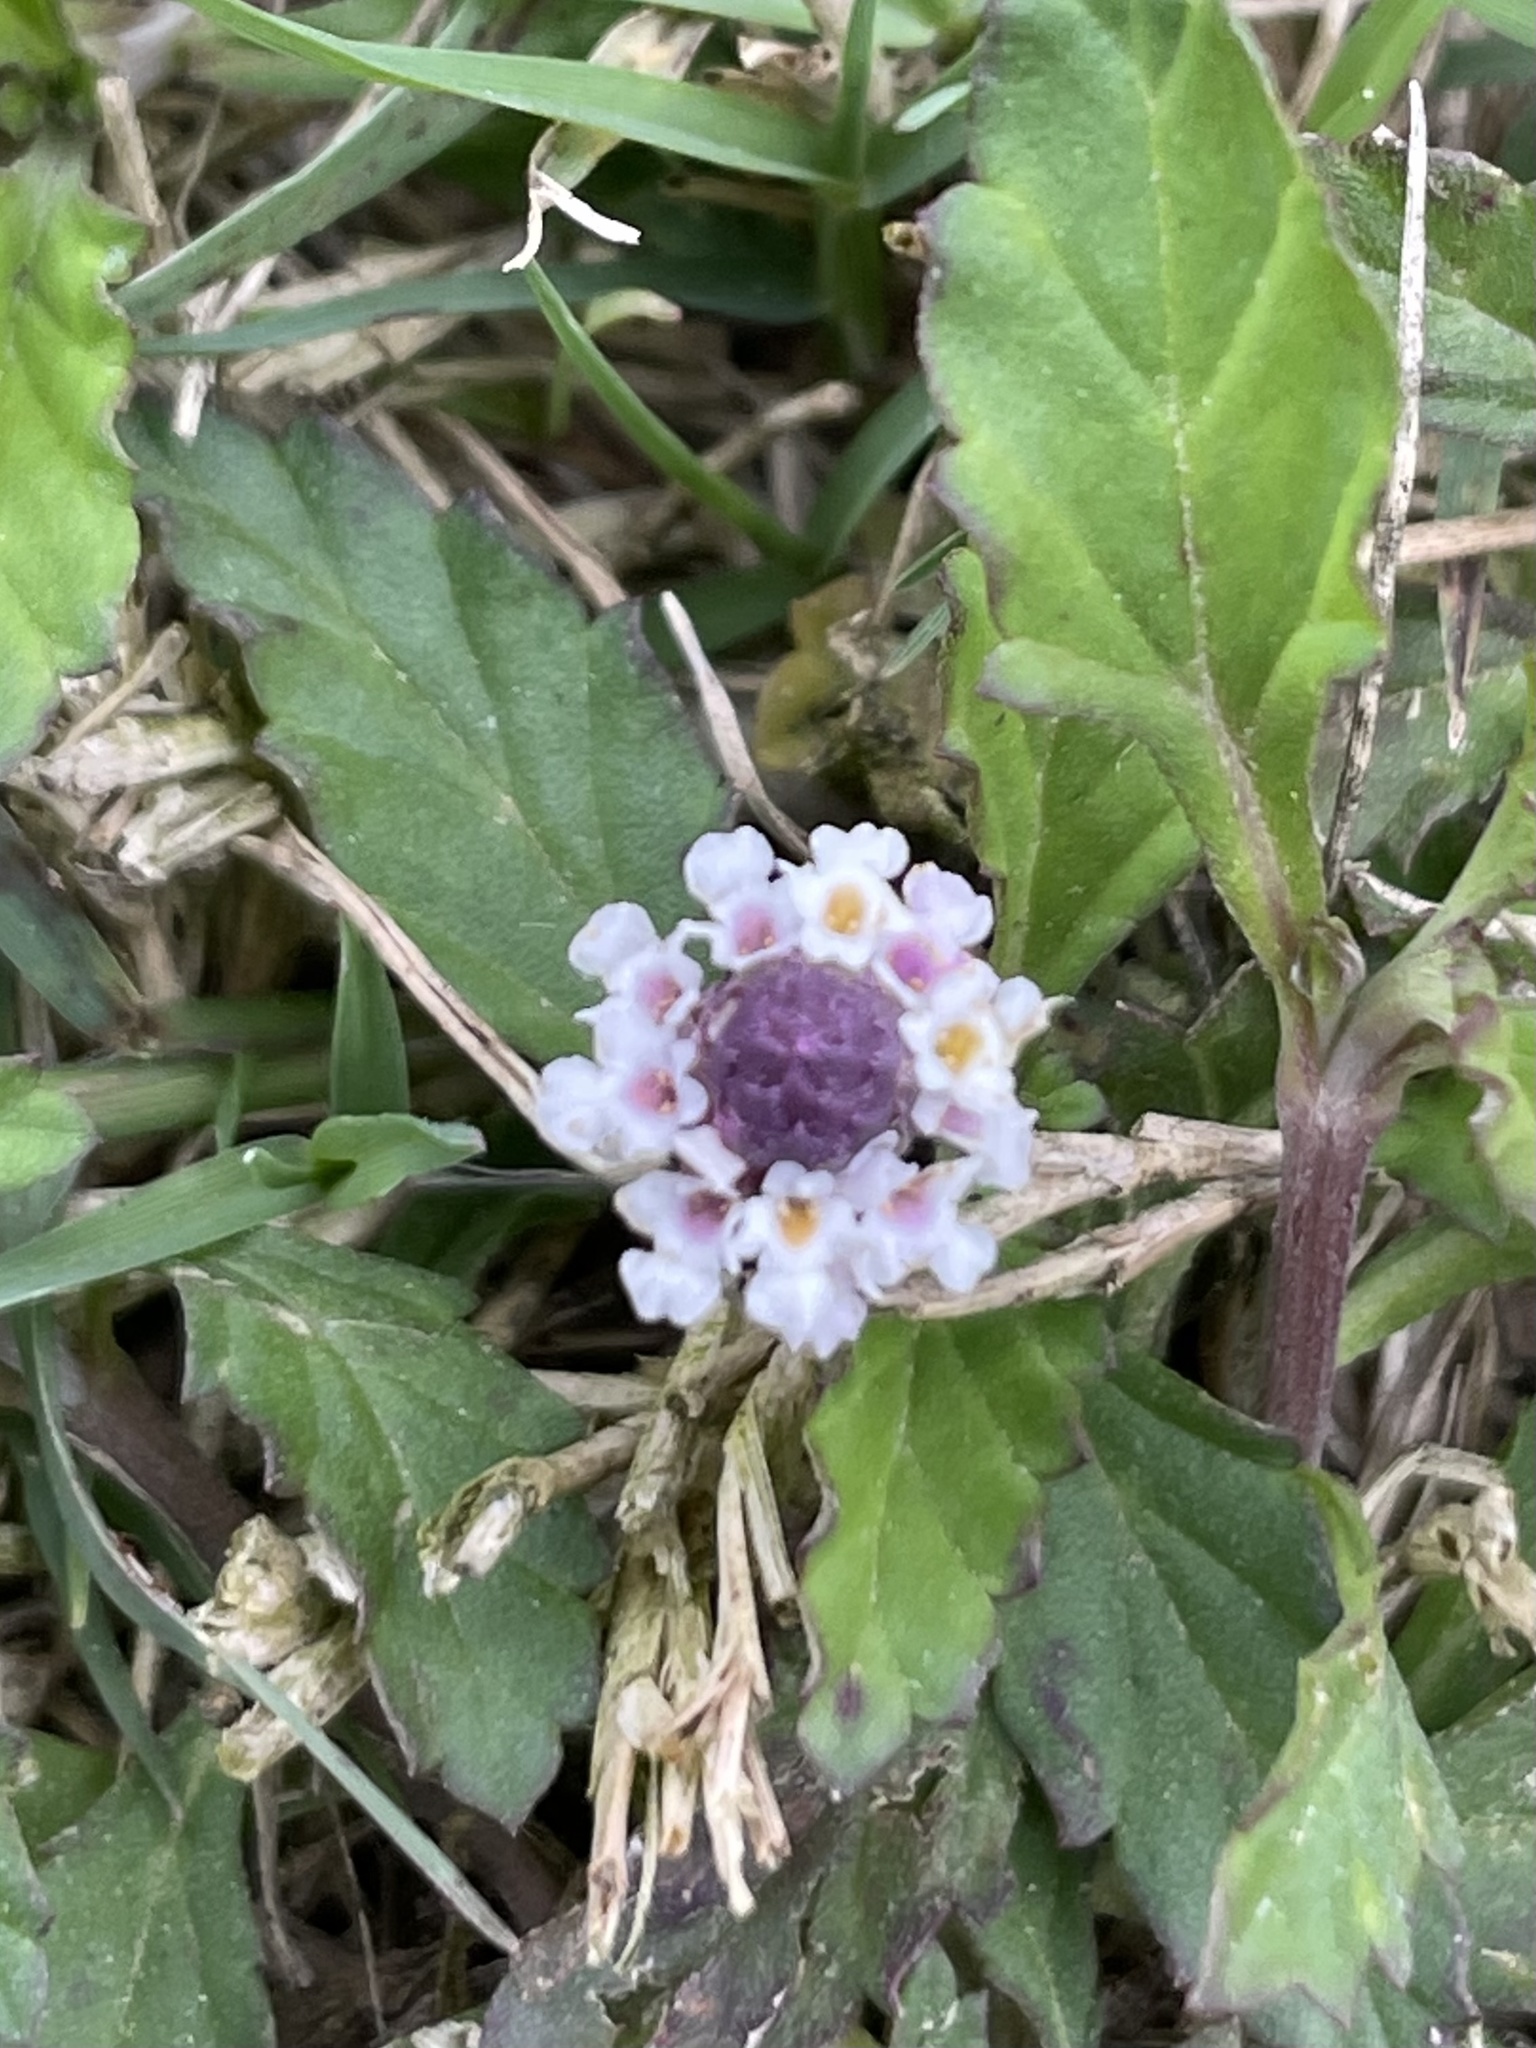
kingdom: Plantae
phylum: Tracheophyta
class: Magnoliopsida
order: Lamiales
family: Verbenaceae
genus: Phyla
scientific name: Phyla nodiflora
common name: Frogfruit
